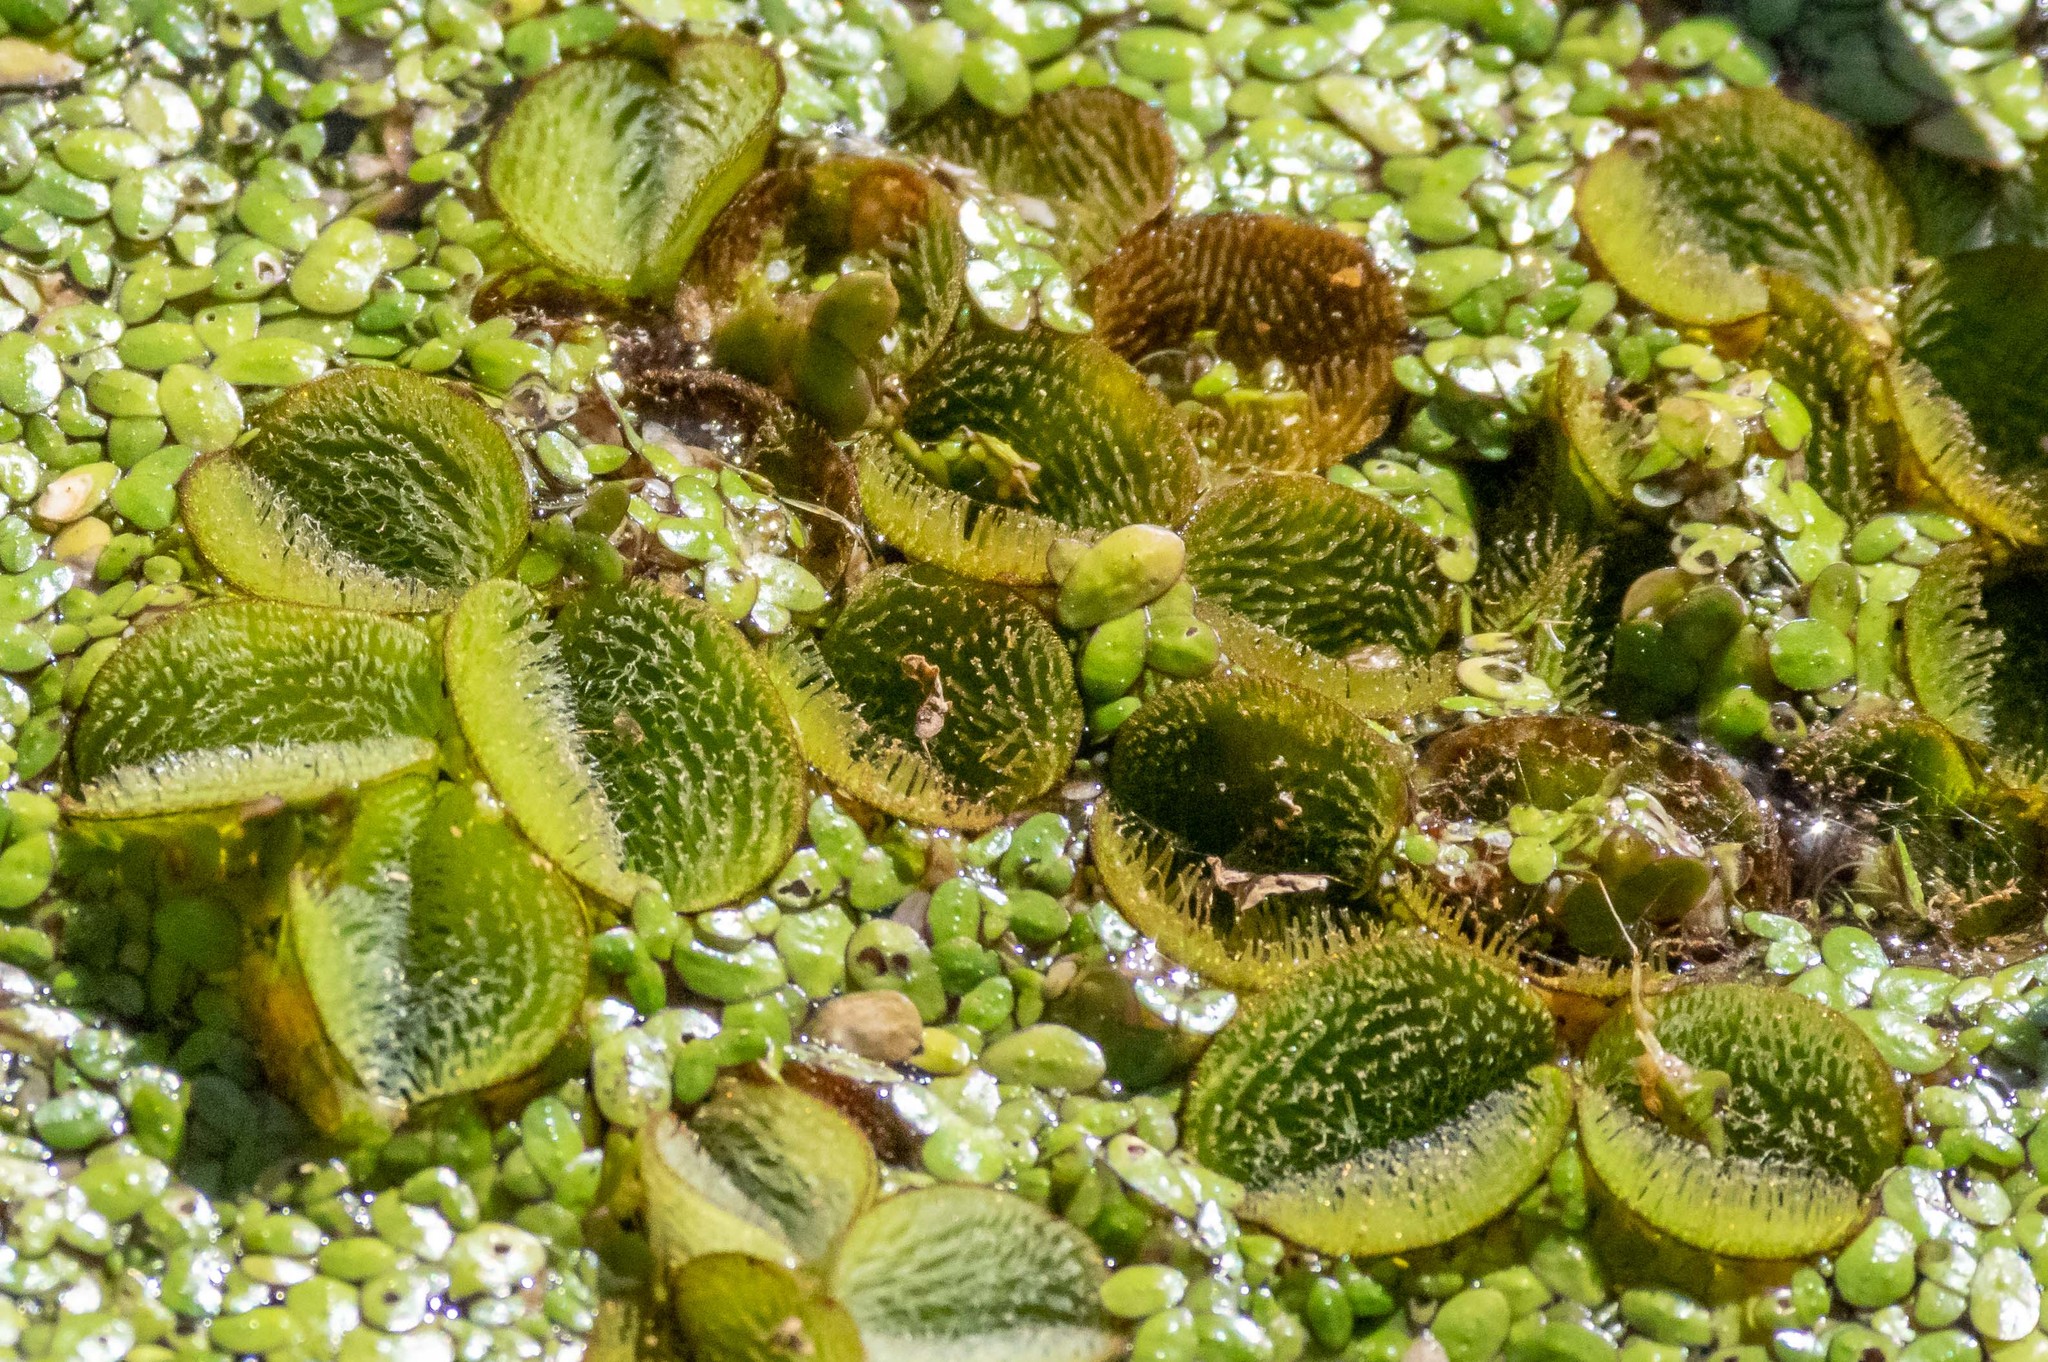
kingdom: Plantae
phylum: Tracheophyta
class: Polypodiopsida
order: Salviniales
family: Salviniaceae
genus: Salvinia
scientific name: Salvinia minima
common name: Water spangles
